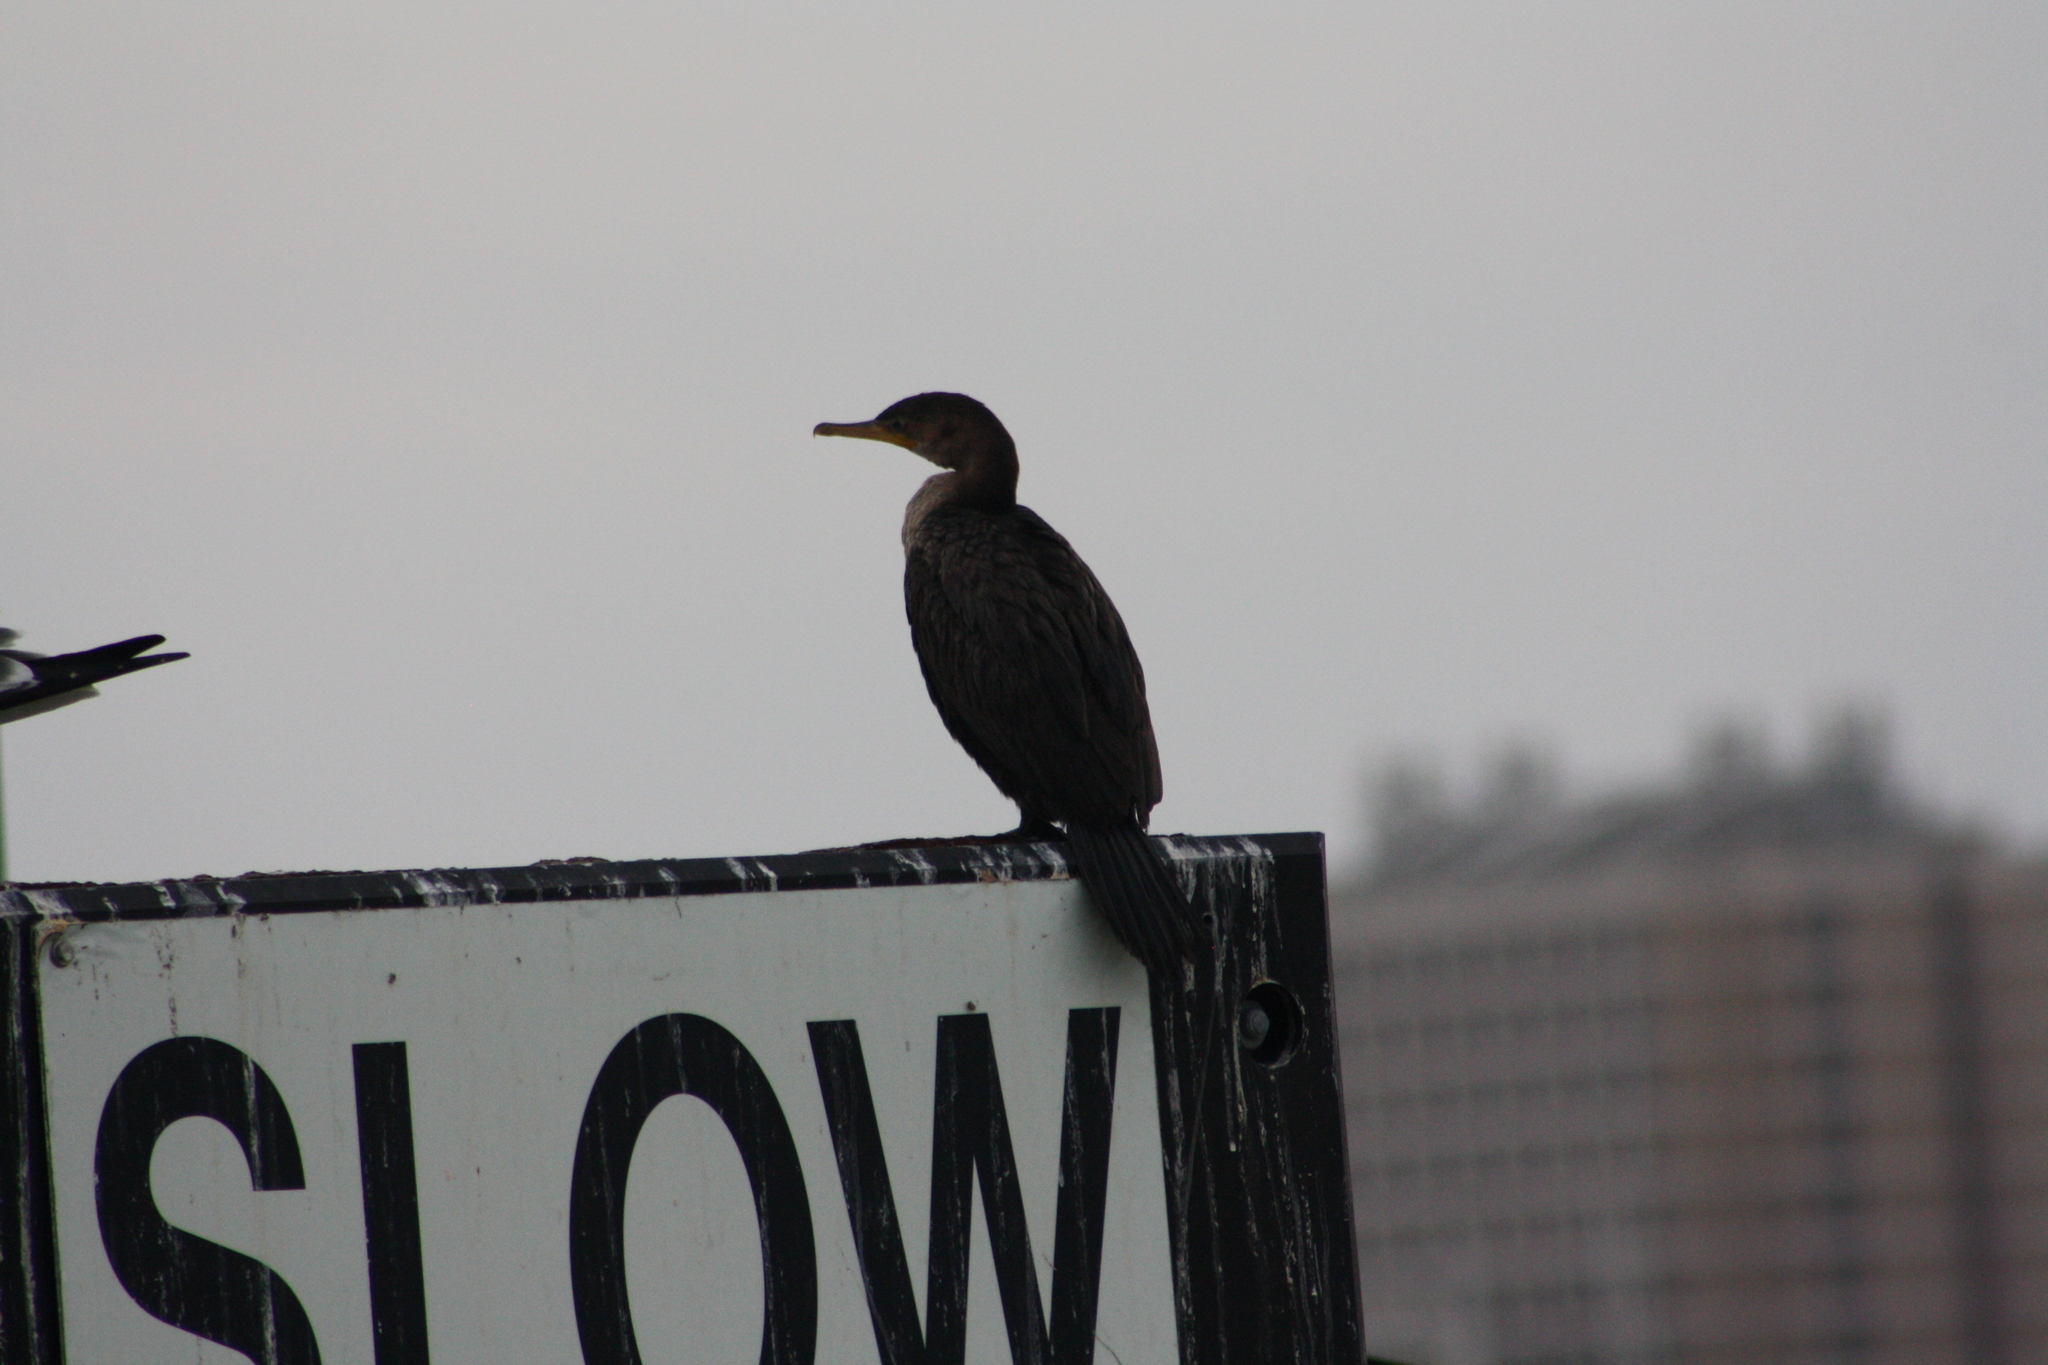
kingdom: Animalia
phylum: Chordata
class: Aves
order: Suliformes
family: Phalacrocoracidae
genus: Phalacrocorax
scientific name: Phalacrocorax brasilianus
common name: Neotropic cormorant
